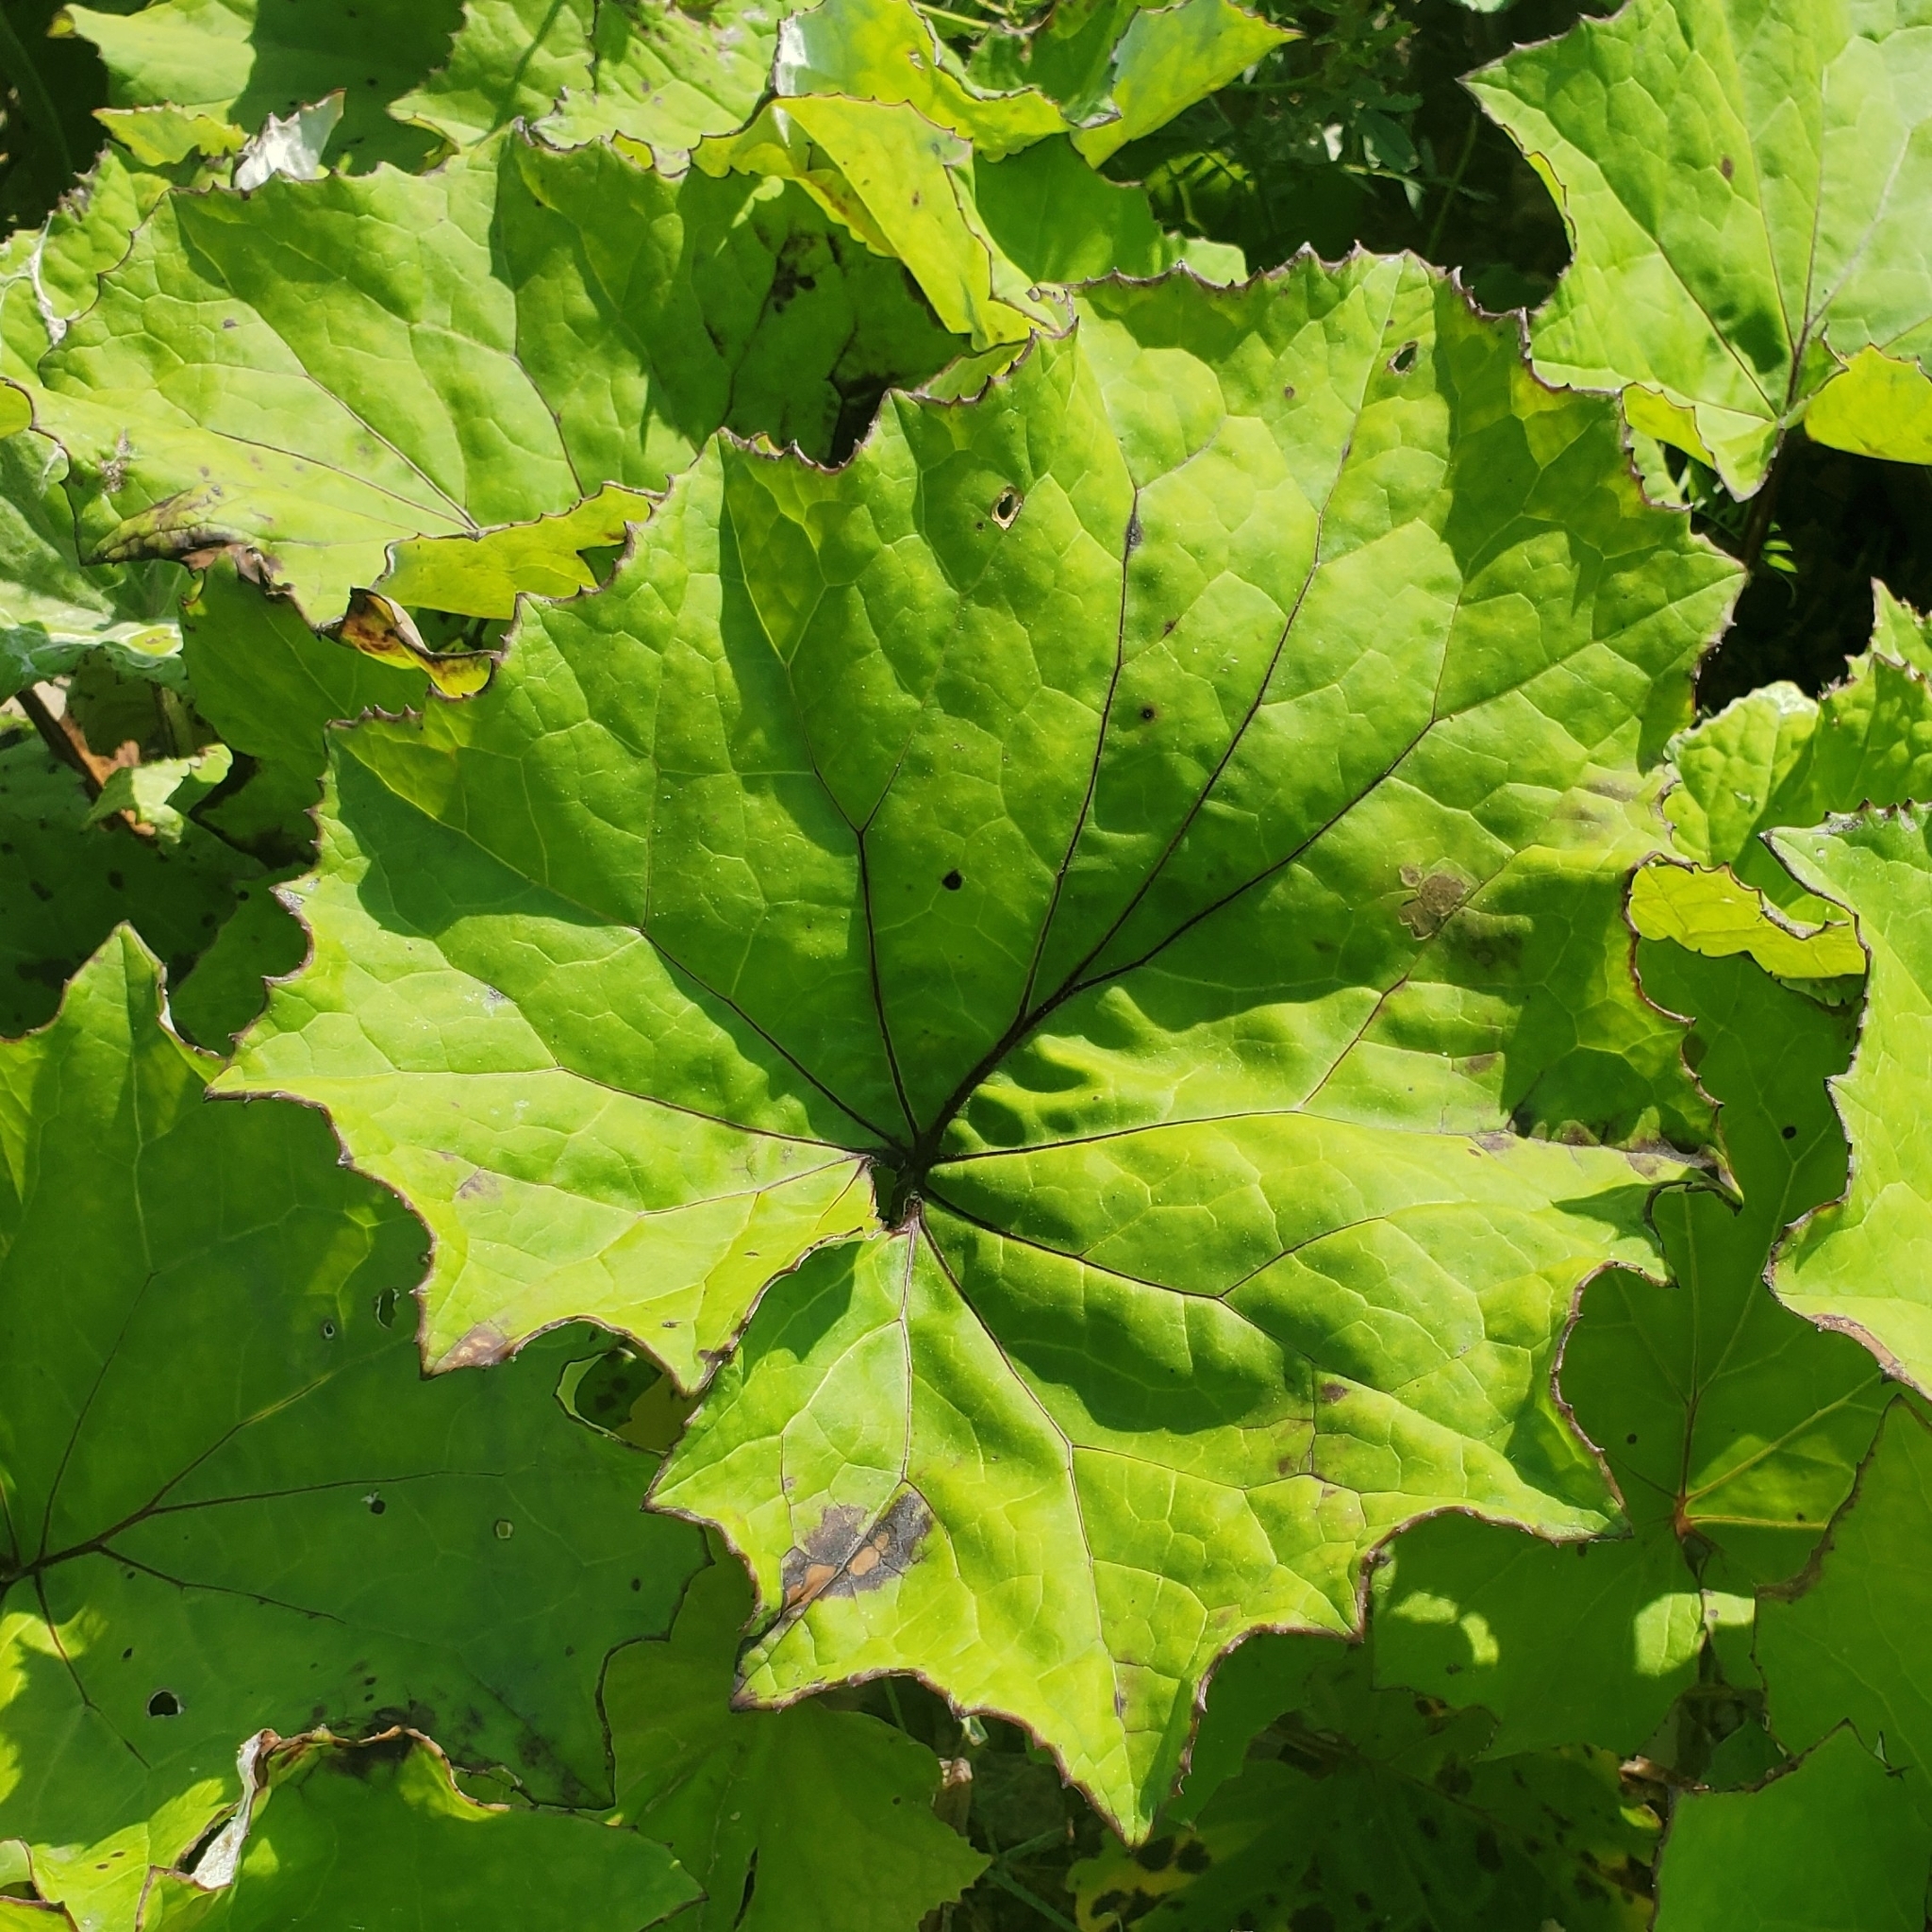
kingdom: Plantae
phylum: Tracheophyta
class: Magnoliopsida
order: Asterales
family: Asteraceae
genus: Tussilago
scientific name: Tussilago farfara
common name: Coltsfoot
